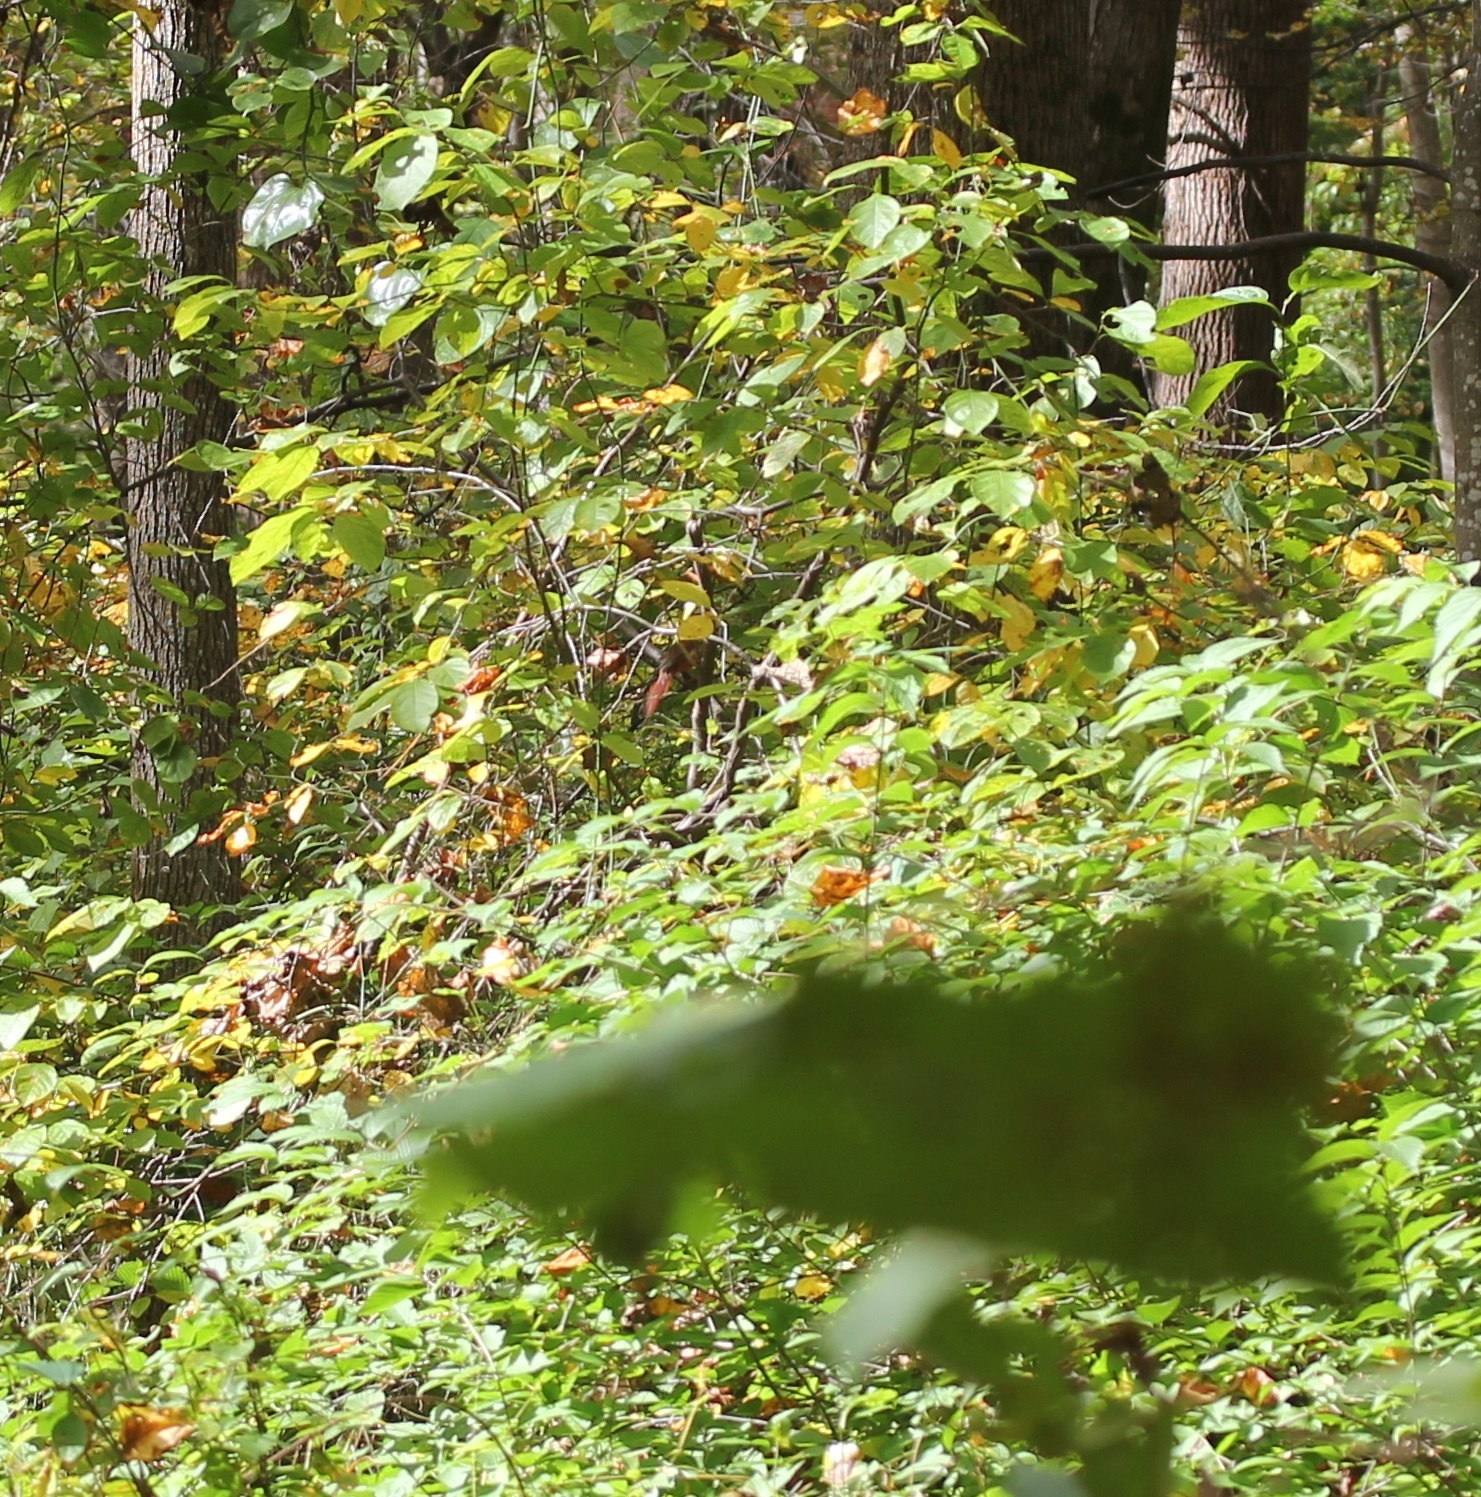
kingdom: Animalia
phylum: Chordata
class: Aves
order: Passeriformes
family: Cardinalidae
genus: Cardinalis
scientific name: Cardinalis cardinalis
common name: Northern cardinal
